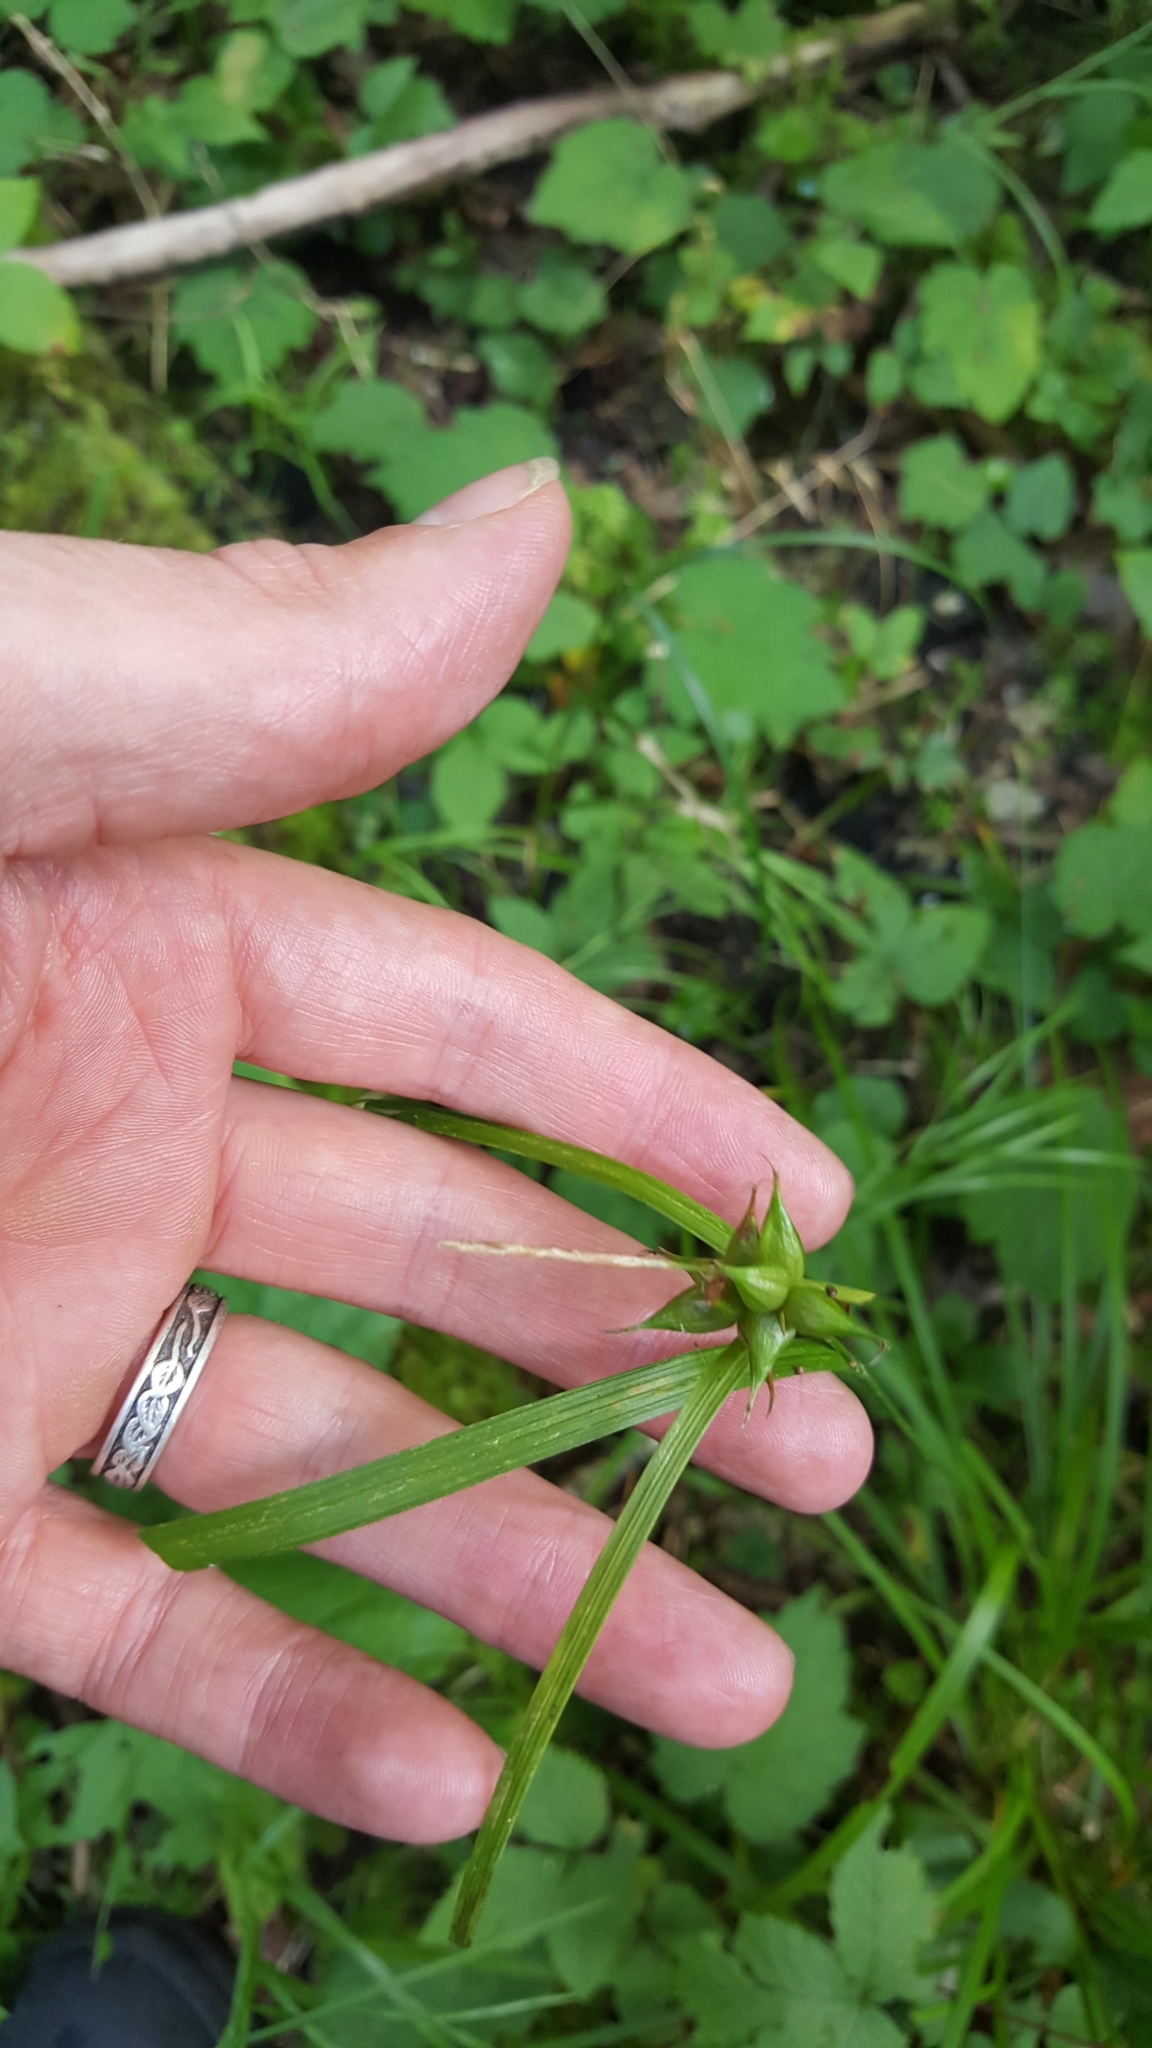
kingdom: Plantae
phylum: Tracheophyta
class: Liliopsida
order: Poales
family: Cyperaceae
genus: Carex
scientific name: Carex intumescens
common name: Greater bladder sedge
